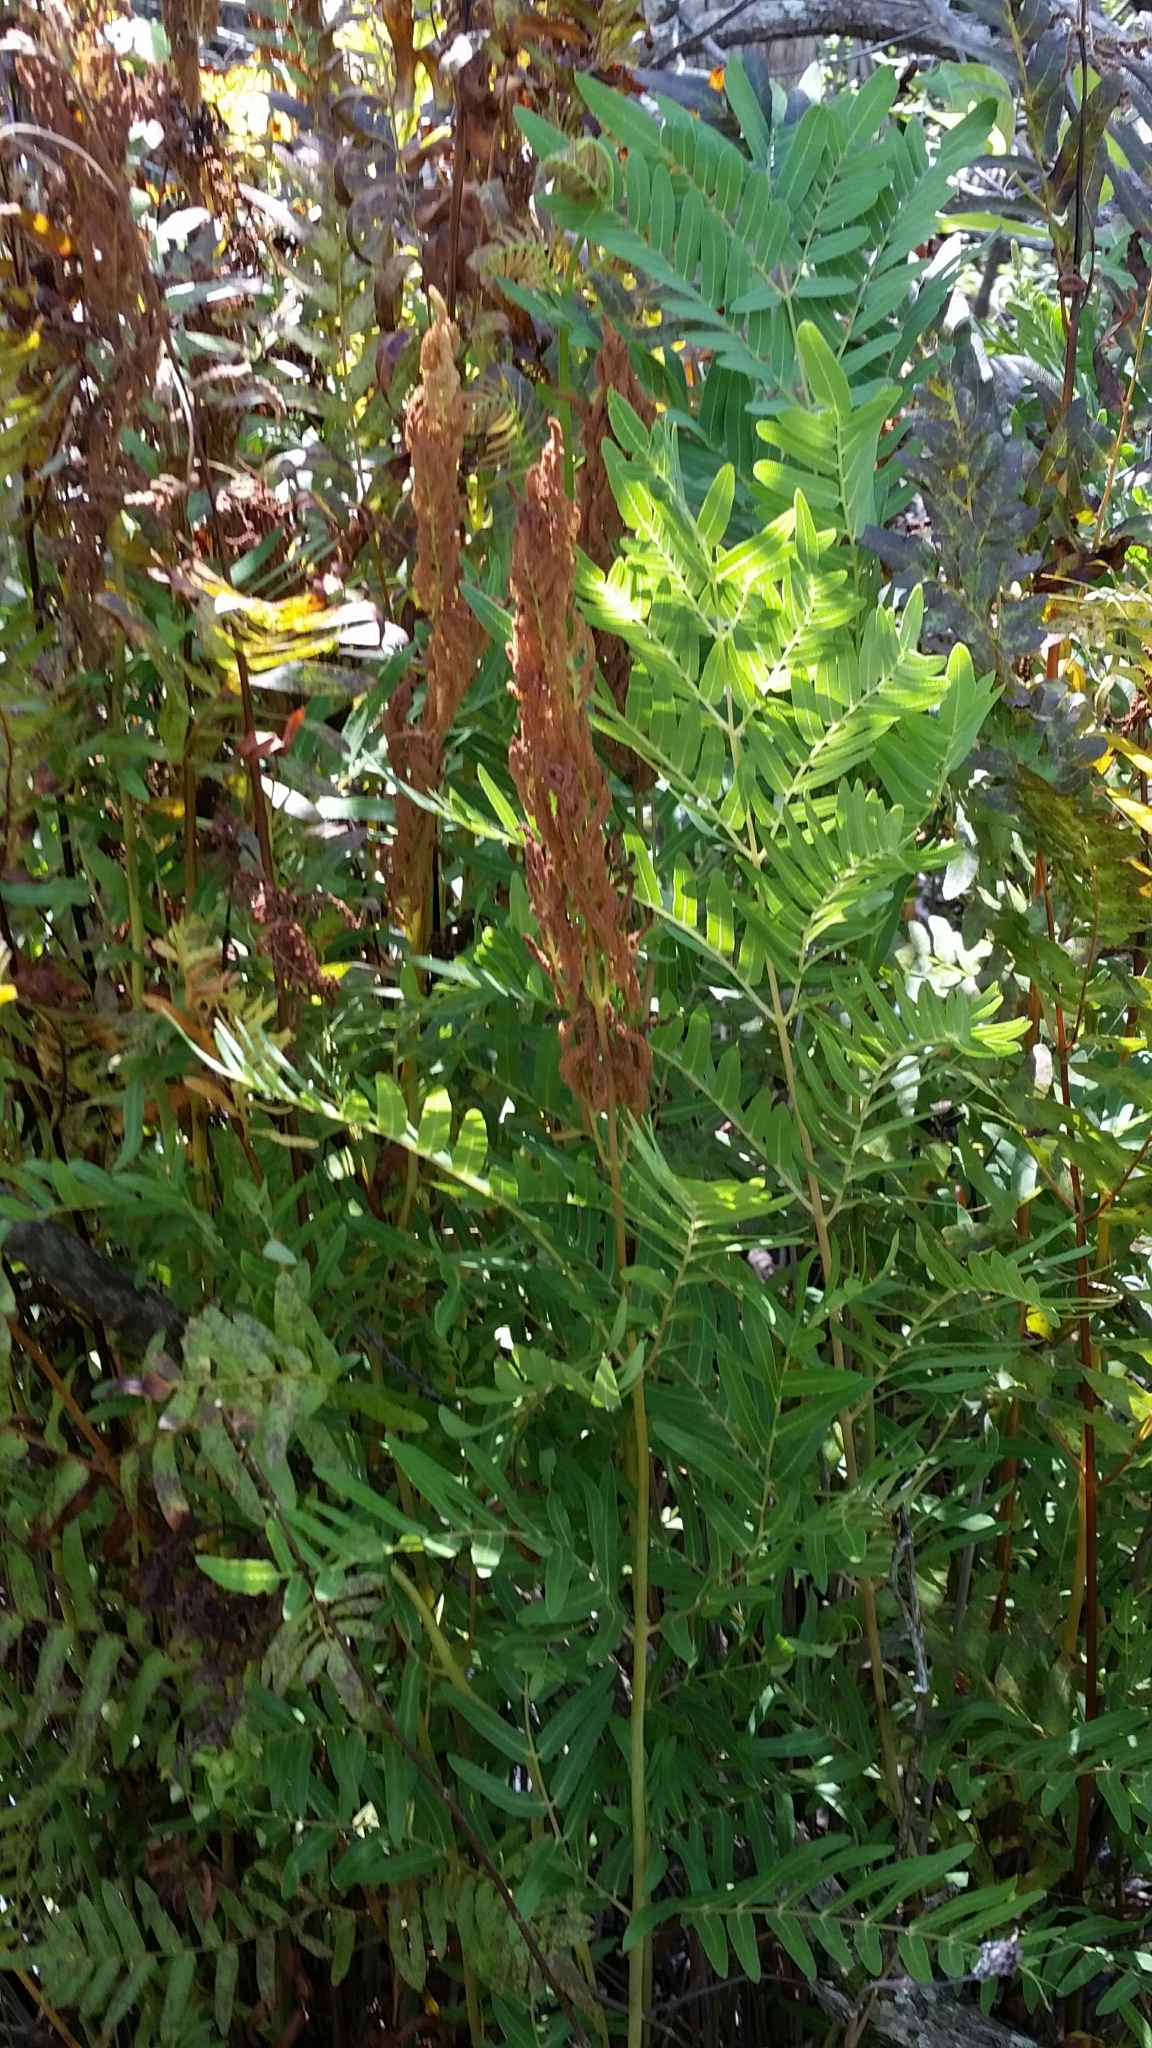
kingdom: Plantae
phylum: Tracheophyta
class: Polypodiopsida
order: Osmundales
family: Osmundaceae
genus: Osmunda
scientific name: Osmunda spectabilis
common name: American royal fern
